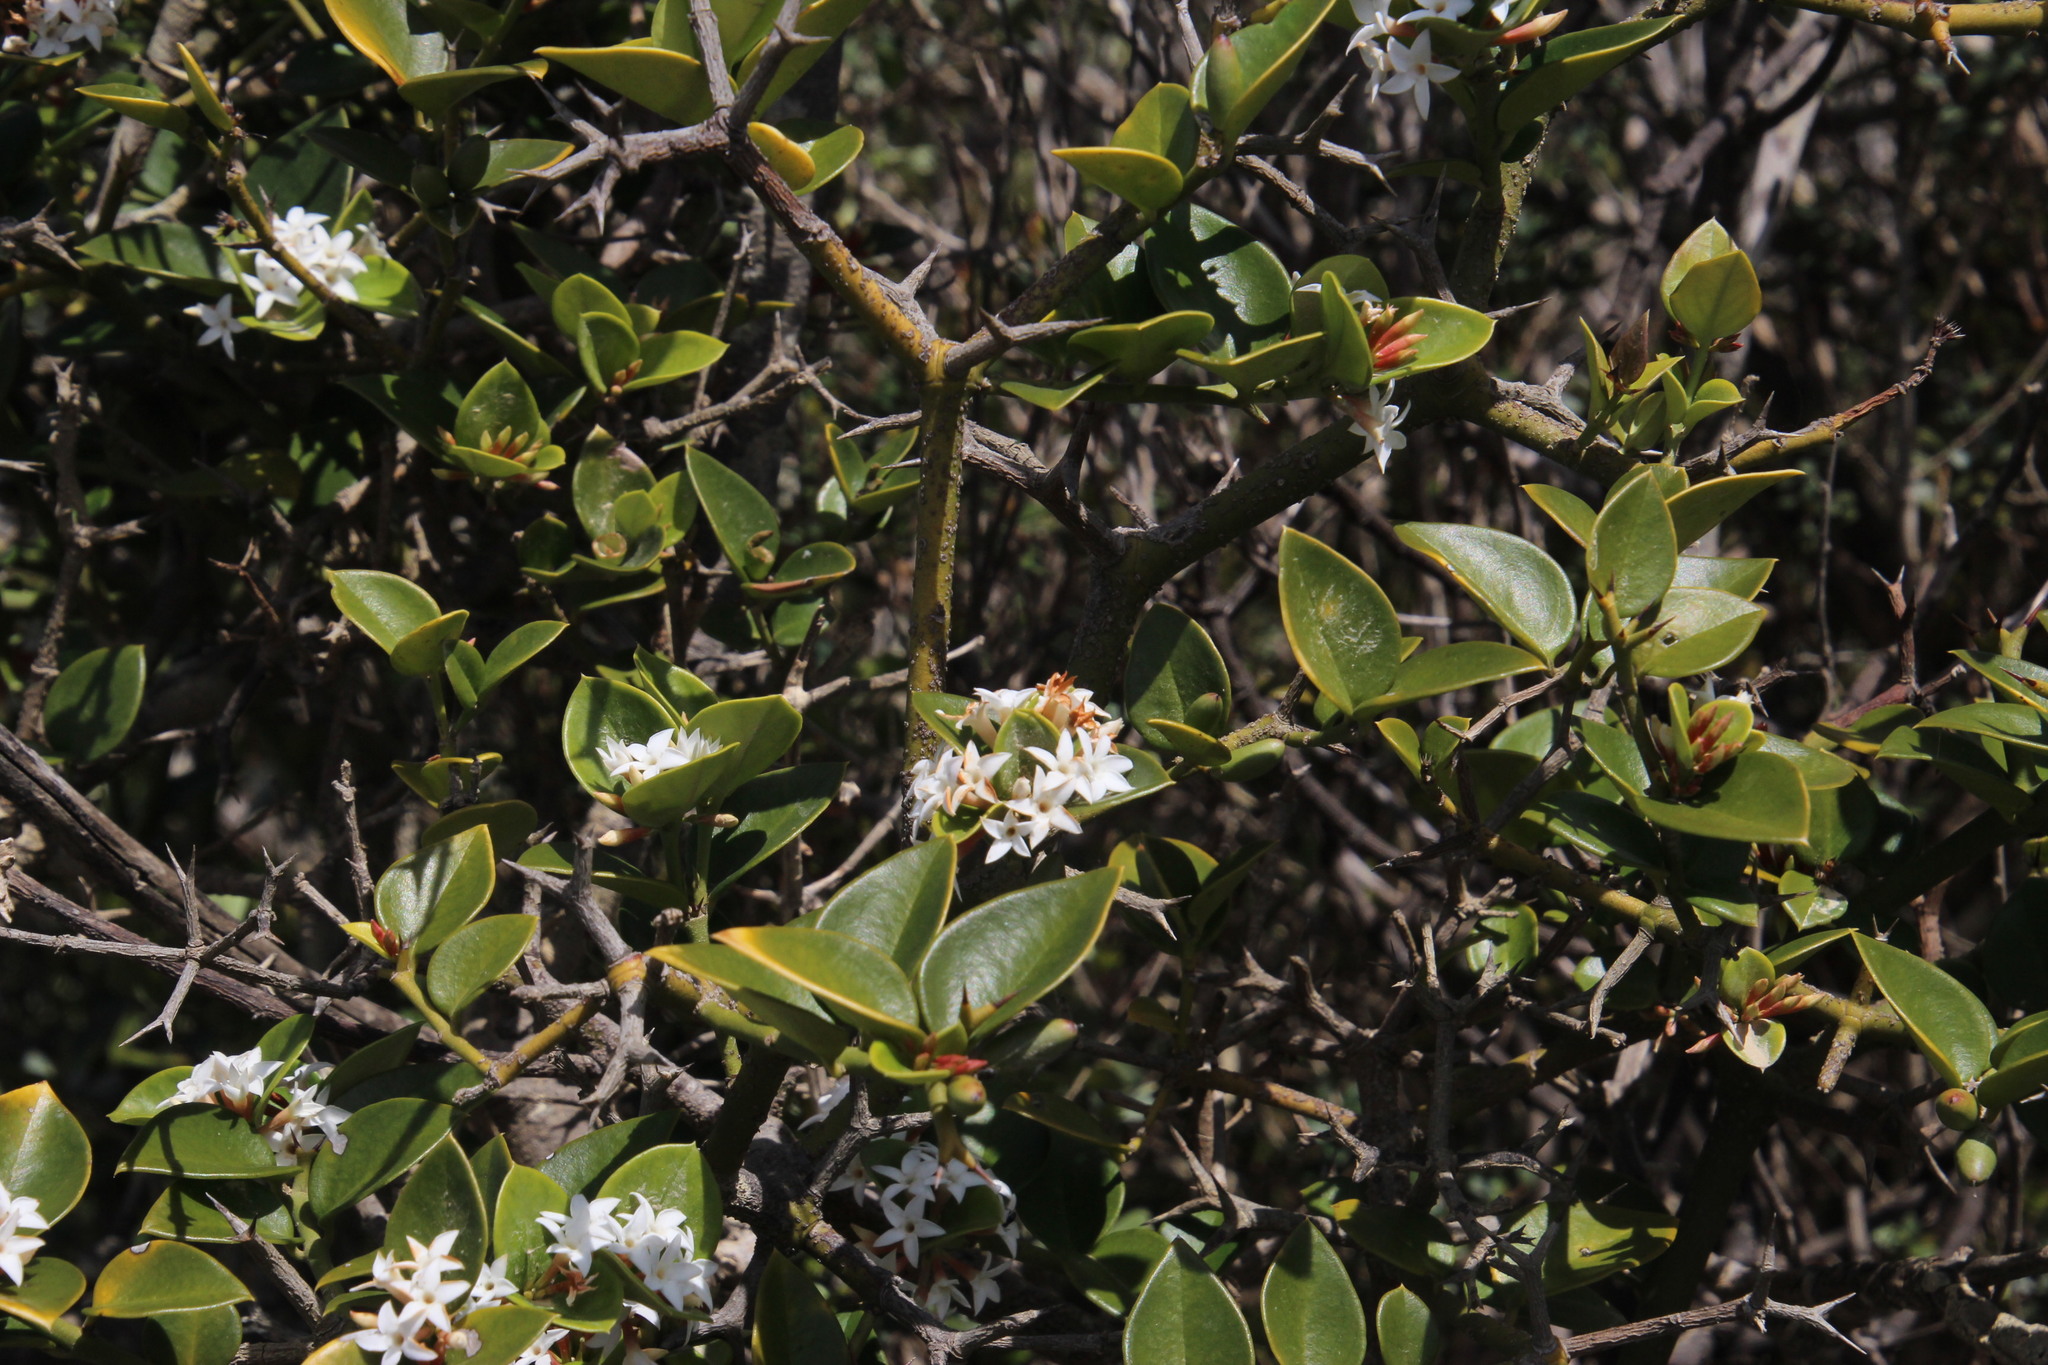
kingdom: Plantae
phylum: Tracheophyta
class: Magnoliopsida
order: Gentianales
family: Apocynaceae
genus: Carissa
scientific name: Carissa bispinosa
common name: Forest num-num
